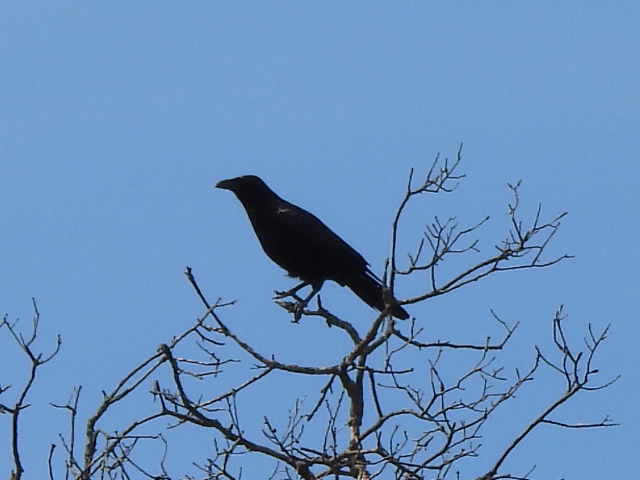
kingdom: Animalia
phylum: Chordata
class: Aves
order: Passeriformes
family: Corvidae
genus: Corvus
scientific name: Corvus brachyrhynchos
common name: American crow
